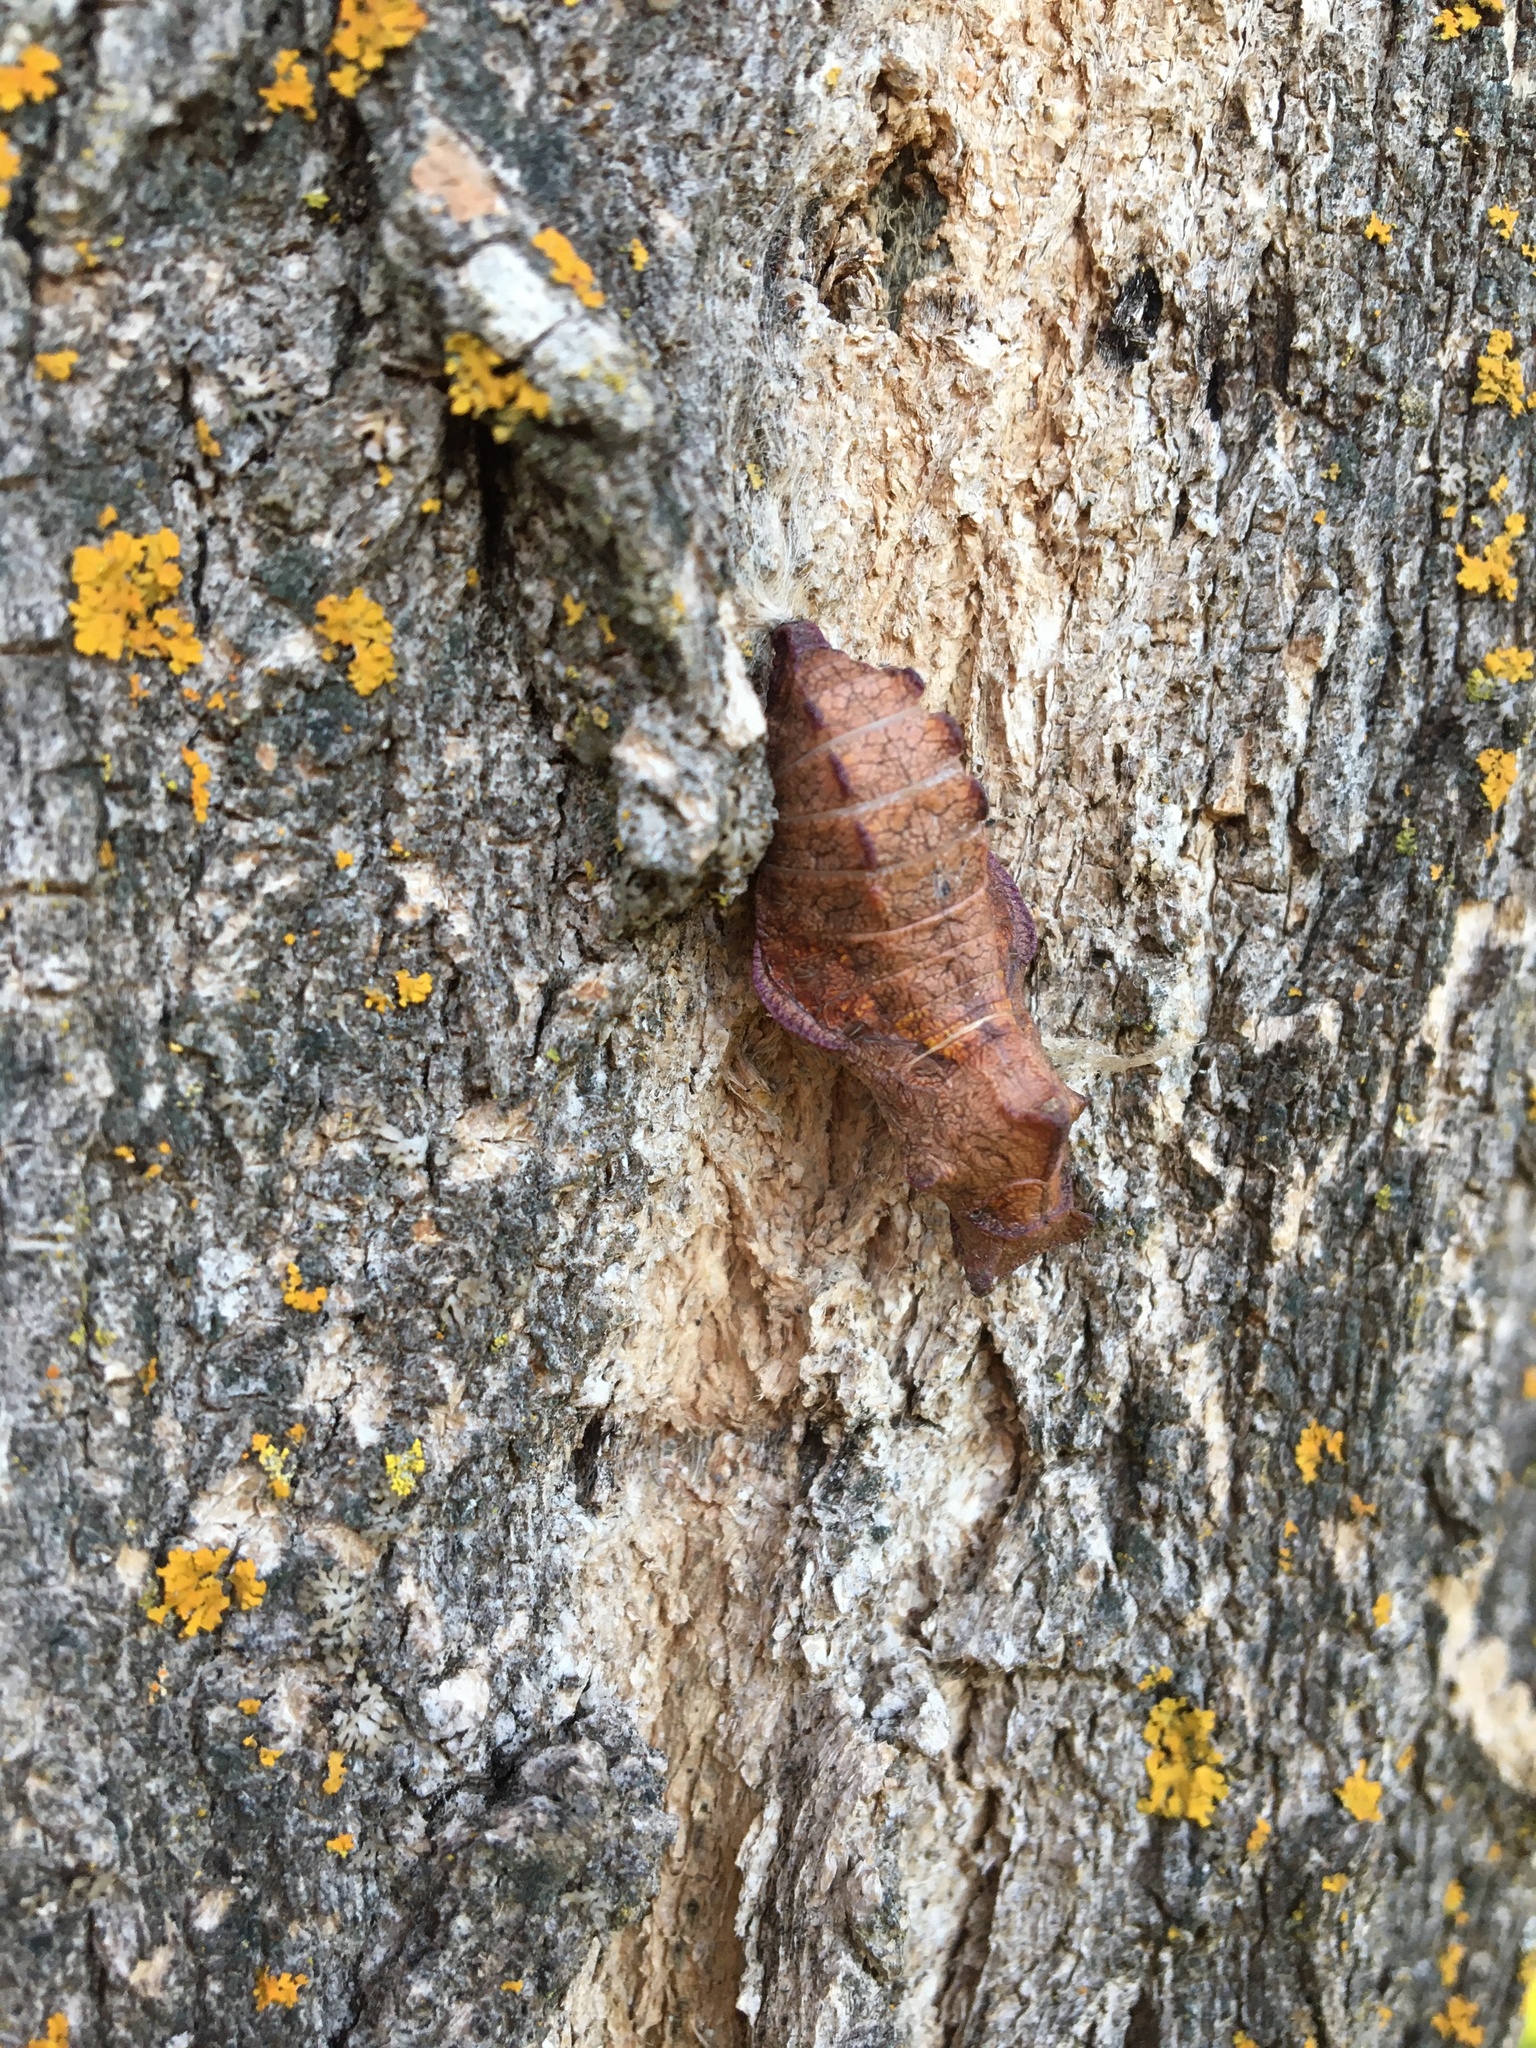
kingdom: Animalia
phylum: Arthropoda
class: Insecta
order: Lepidoptera
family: Papilionidae
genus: Battus
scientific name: Battus philenor
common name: Pipevine swallowtail
